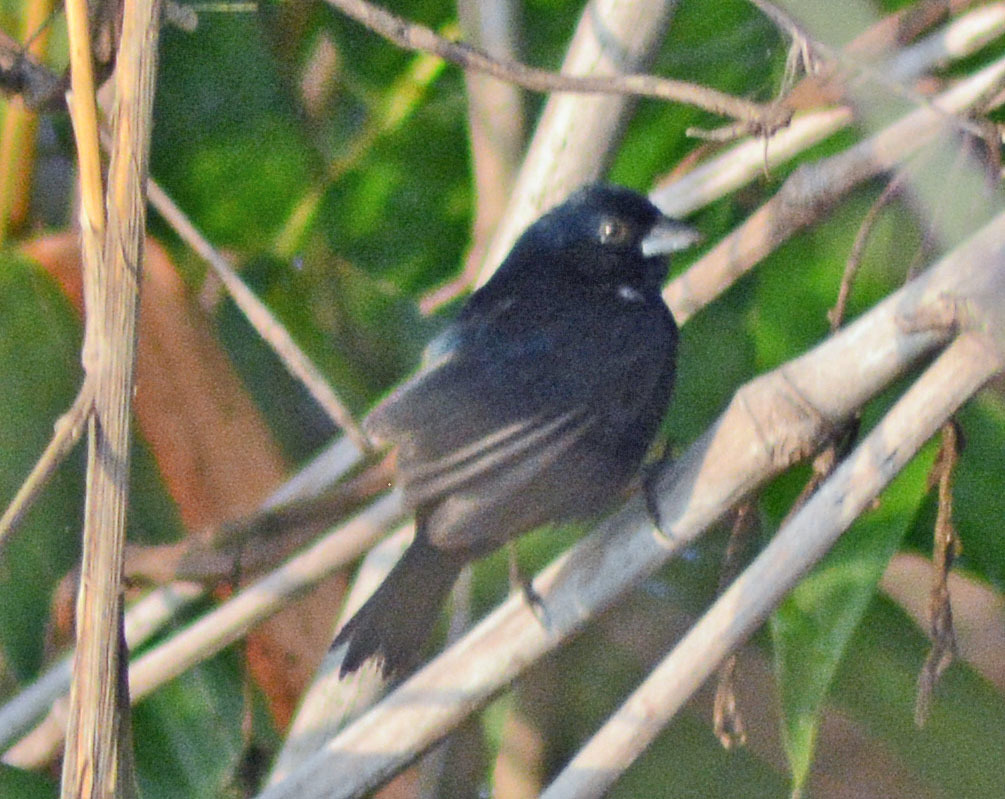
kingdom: Animalia
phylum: Chordata
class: Aves
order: Passeriformes
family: Thraupidae
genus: Volatinia
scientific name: Volatinia jacarina
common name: Blue-black grassquit
